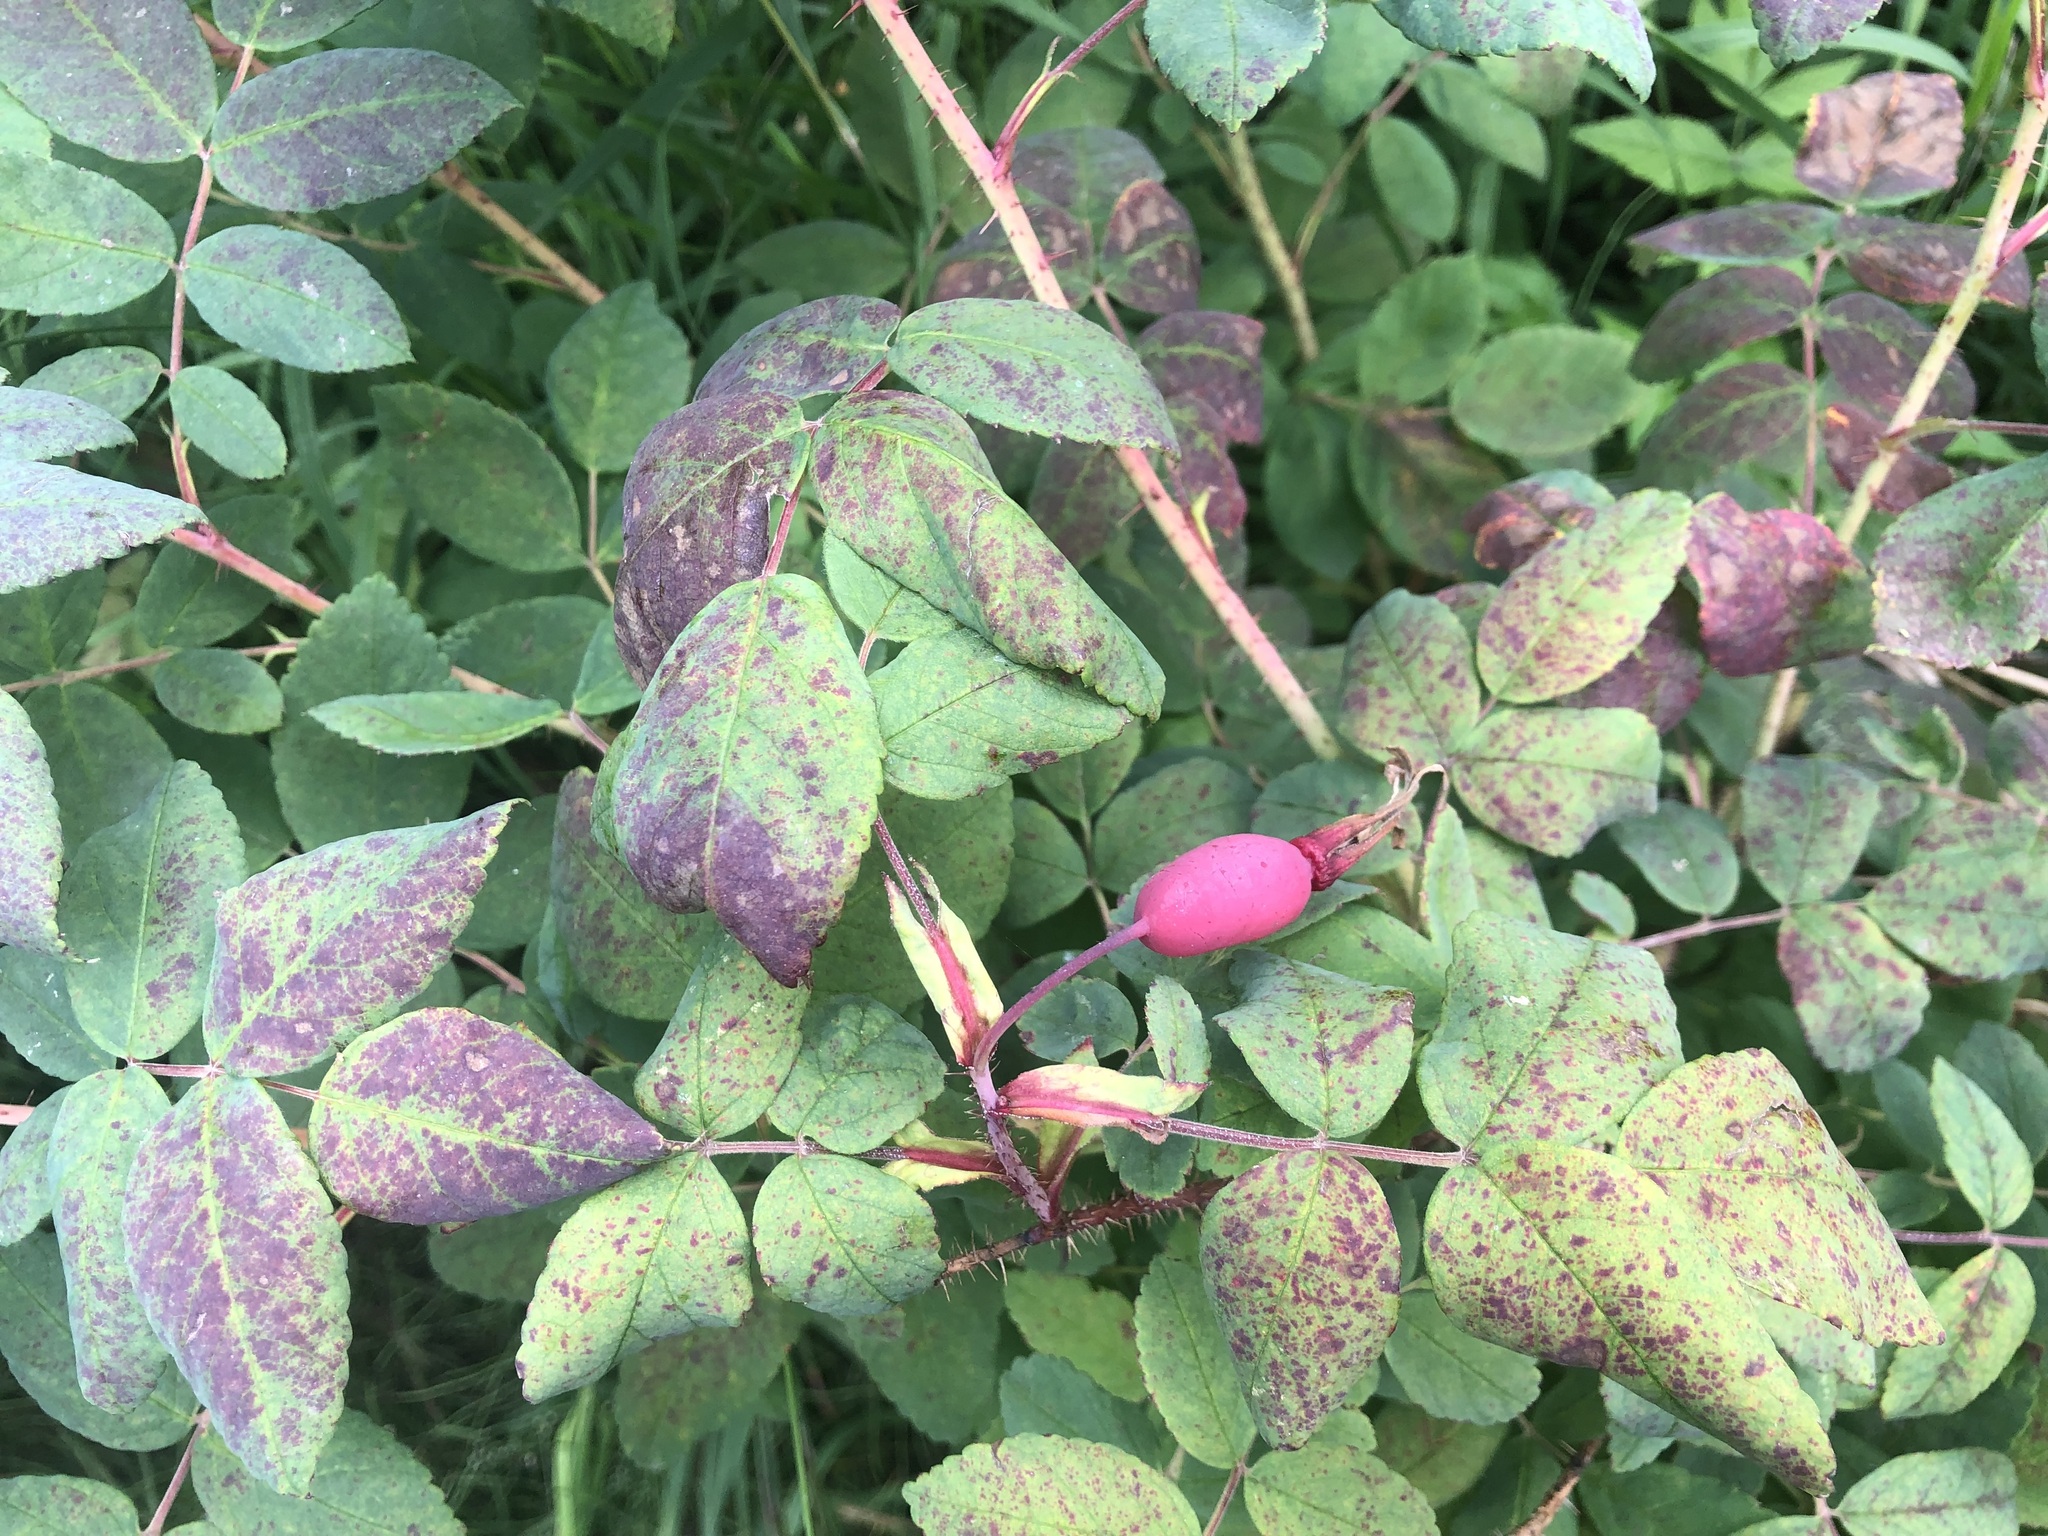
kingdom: Plantae
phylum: Tracheophyta
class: Magnoliopsida
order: Rosales
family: Rosaceae
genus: Rosa
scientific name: Rosa acicularis
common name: Prickly rose
